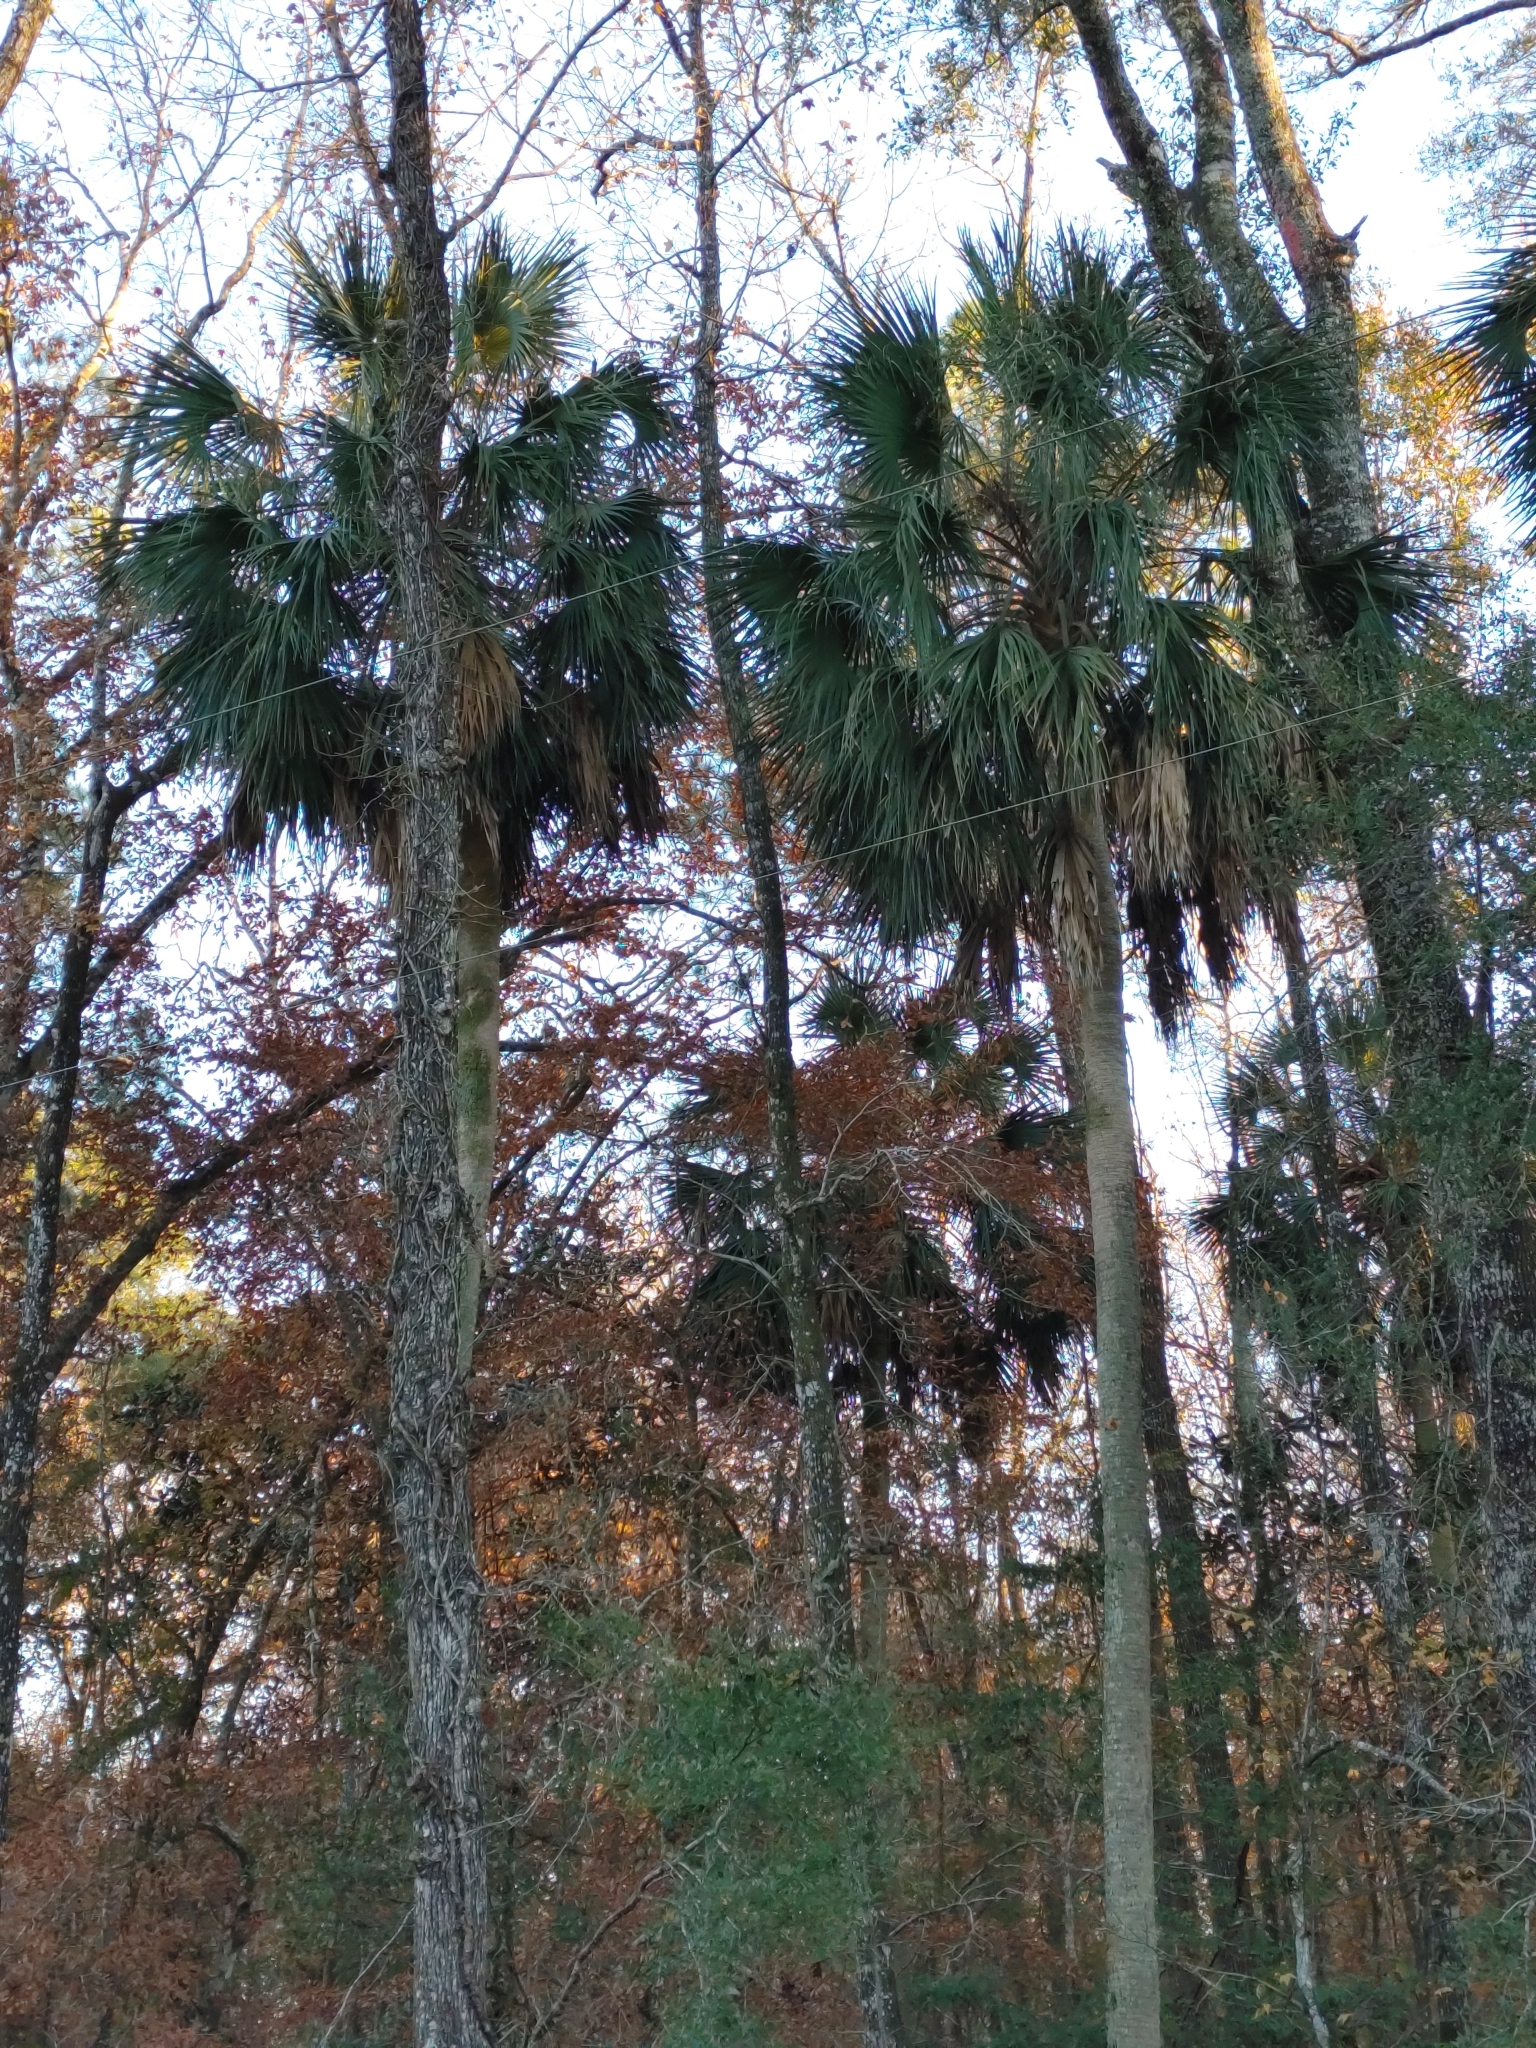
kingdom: Plantae
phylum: Tracheophyta
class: Liliopsida
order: Arecales
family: Arecaceae
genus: Sabal
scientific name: Sabal palmetto
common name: Blue palmetto
